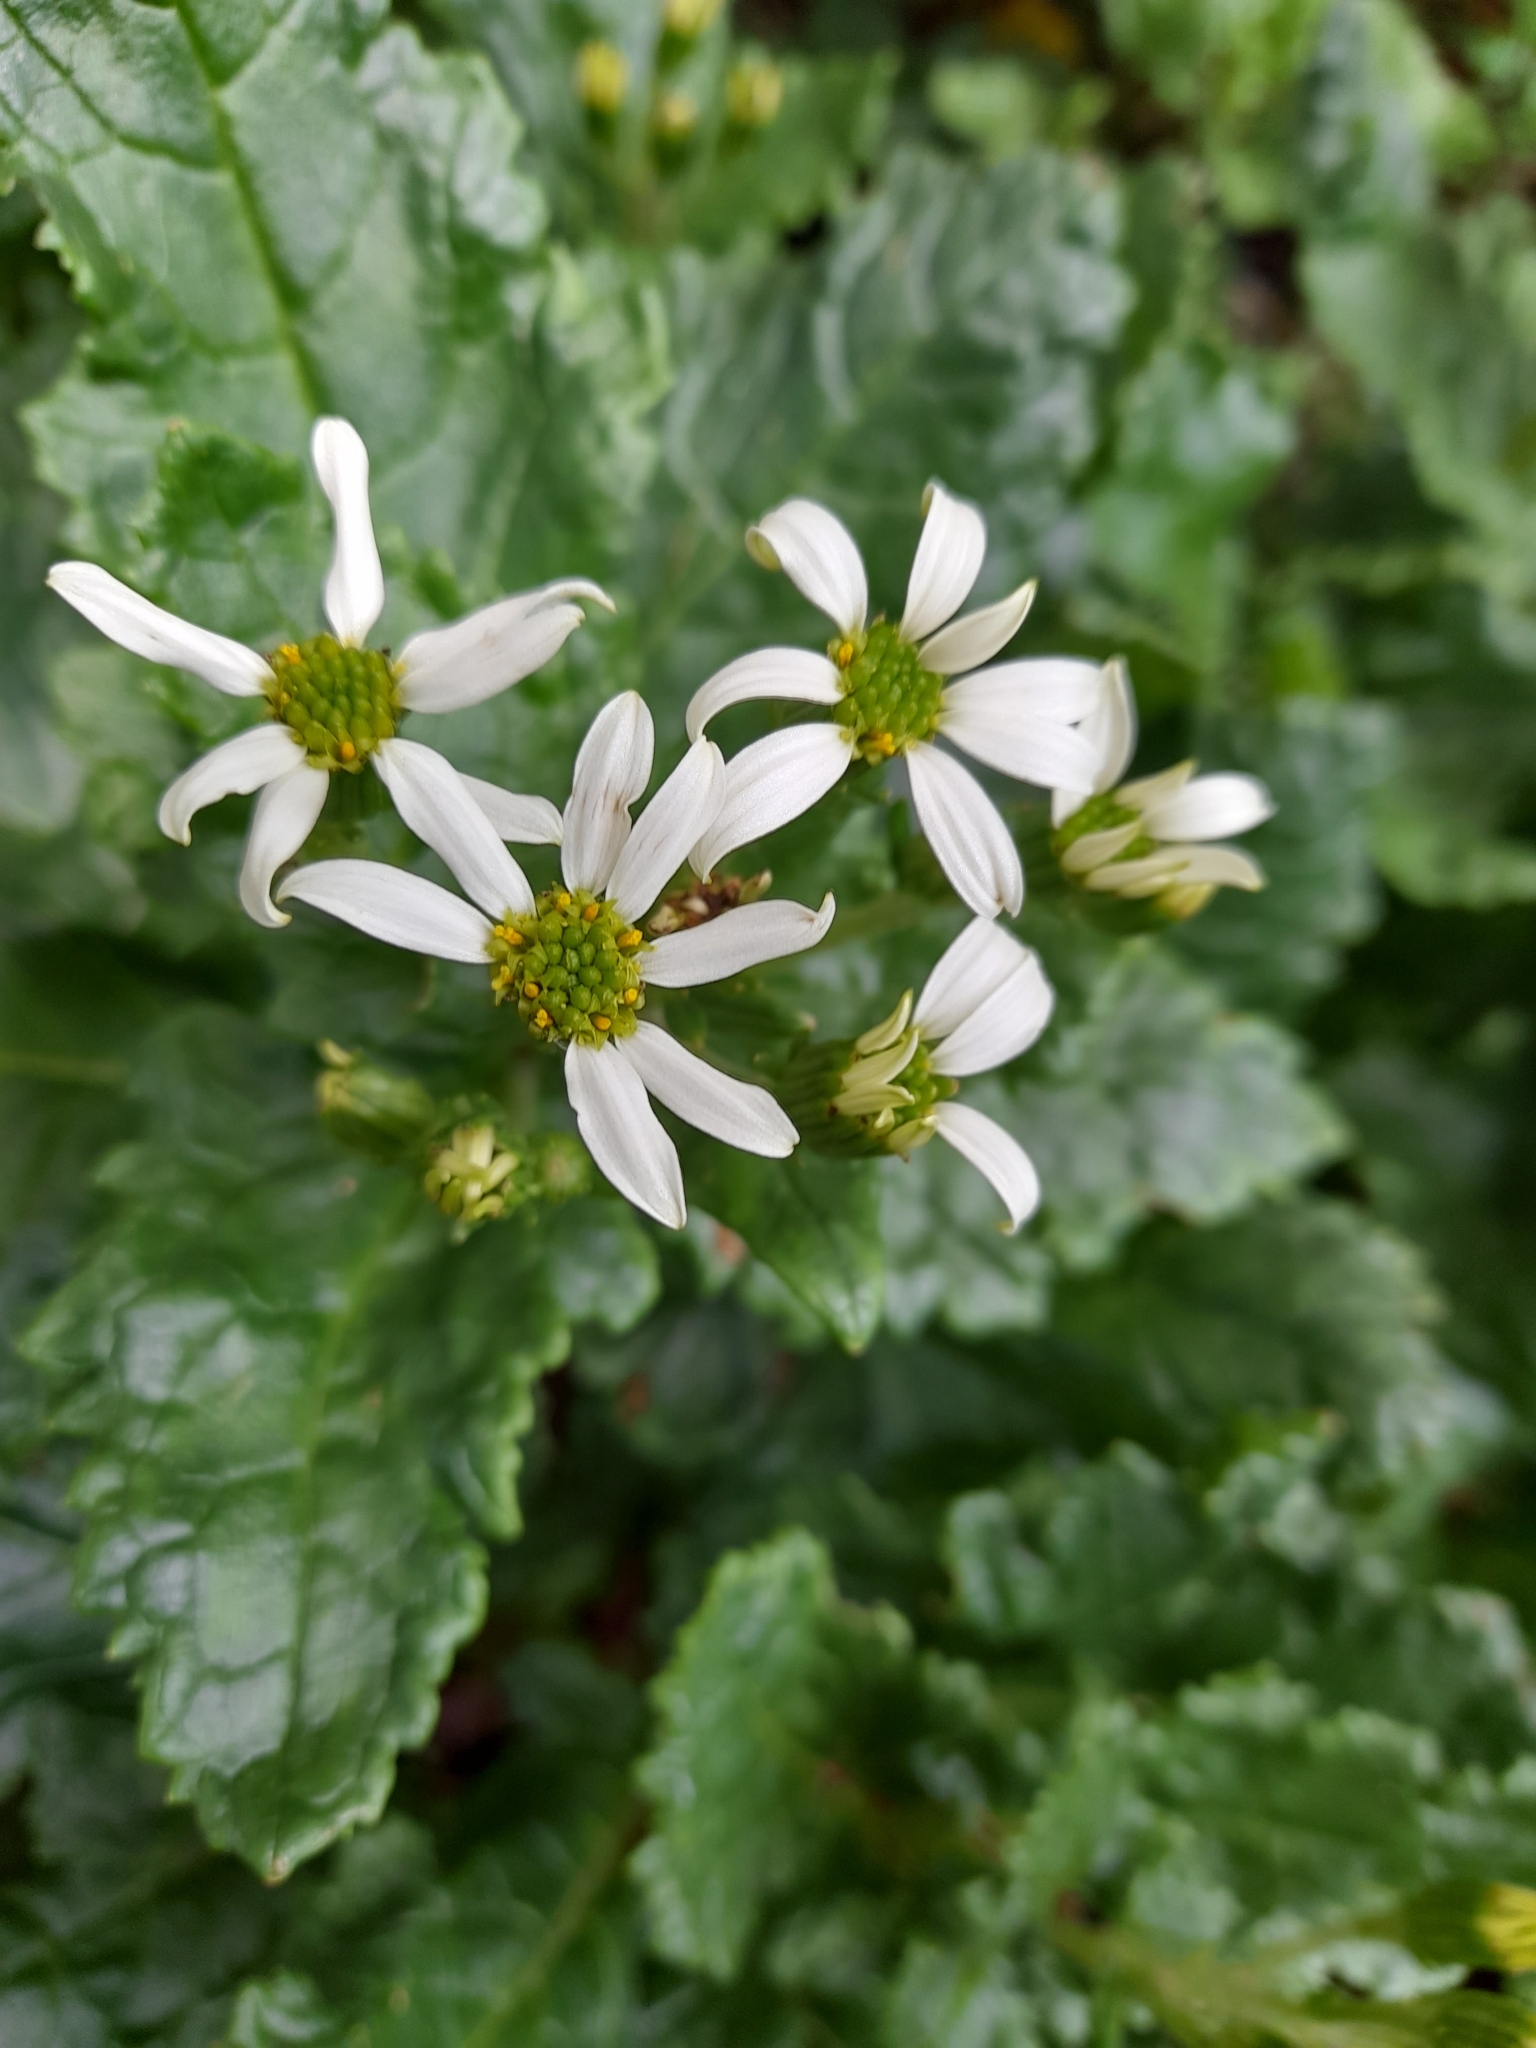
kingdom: Plantae
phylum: Tracheophyta
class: Magnoliopsida
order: Asterales
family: Asteraceae
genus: Iocenes
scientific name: Iocenes virens
